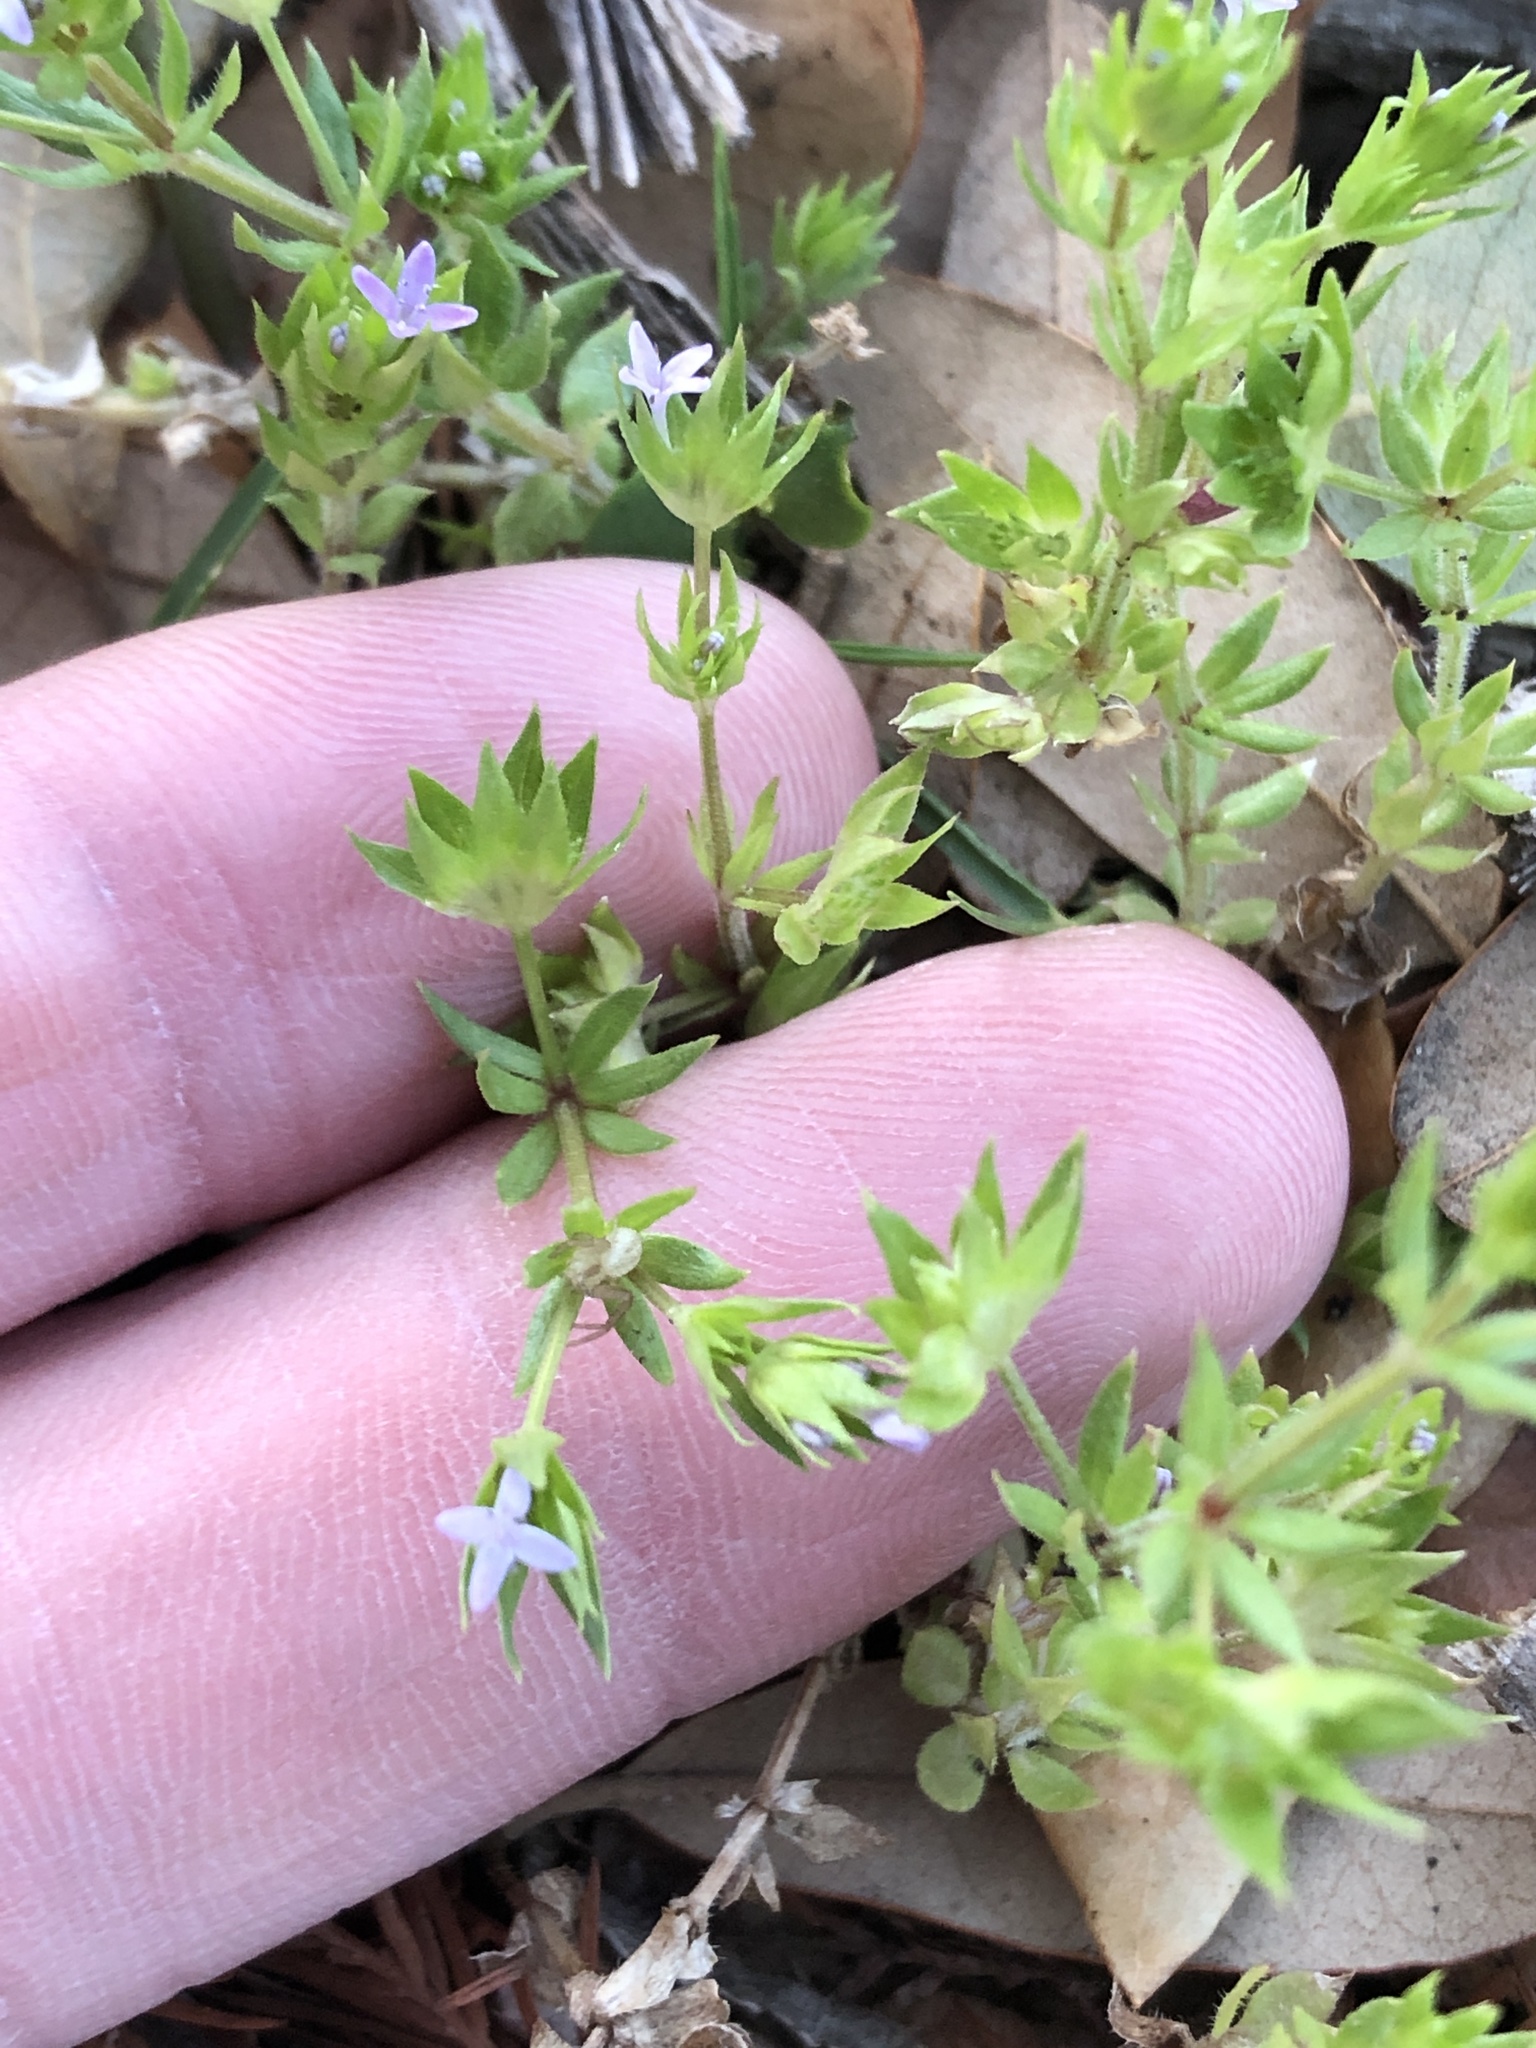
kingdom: Plantae
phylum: Tracheophyta
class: Magnoliopsida
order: Gentianales
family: Rubiaceae
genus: Sherardia
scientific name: Sherardia arvensis
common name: Field madder
